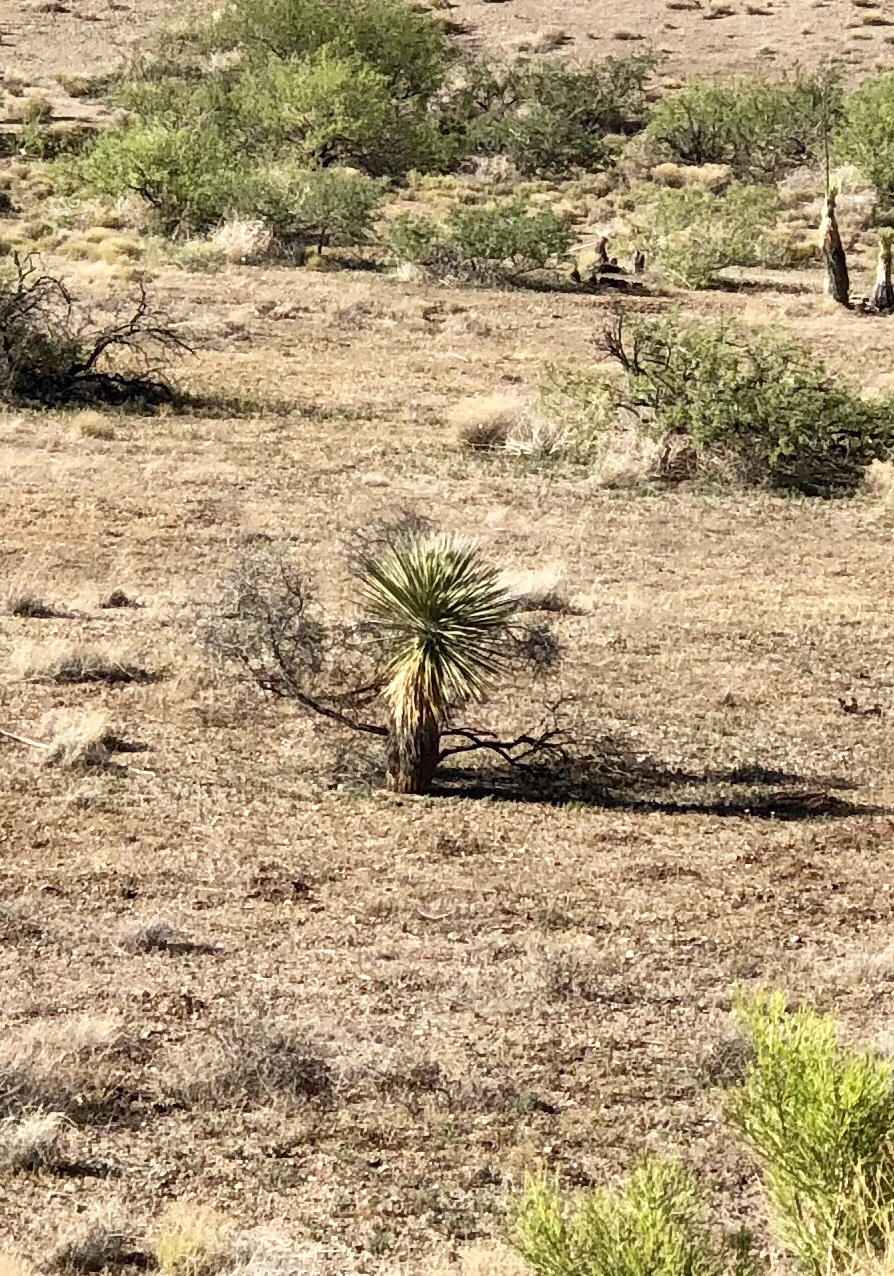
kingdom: Plantae
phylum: Tracheophyta
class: Liliopsida
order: Asparagales
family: Asparagaceae
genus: Yucca
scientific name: Yucca elata
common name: Palmella
